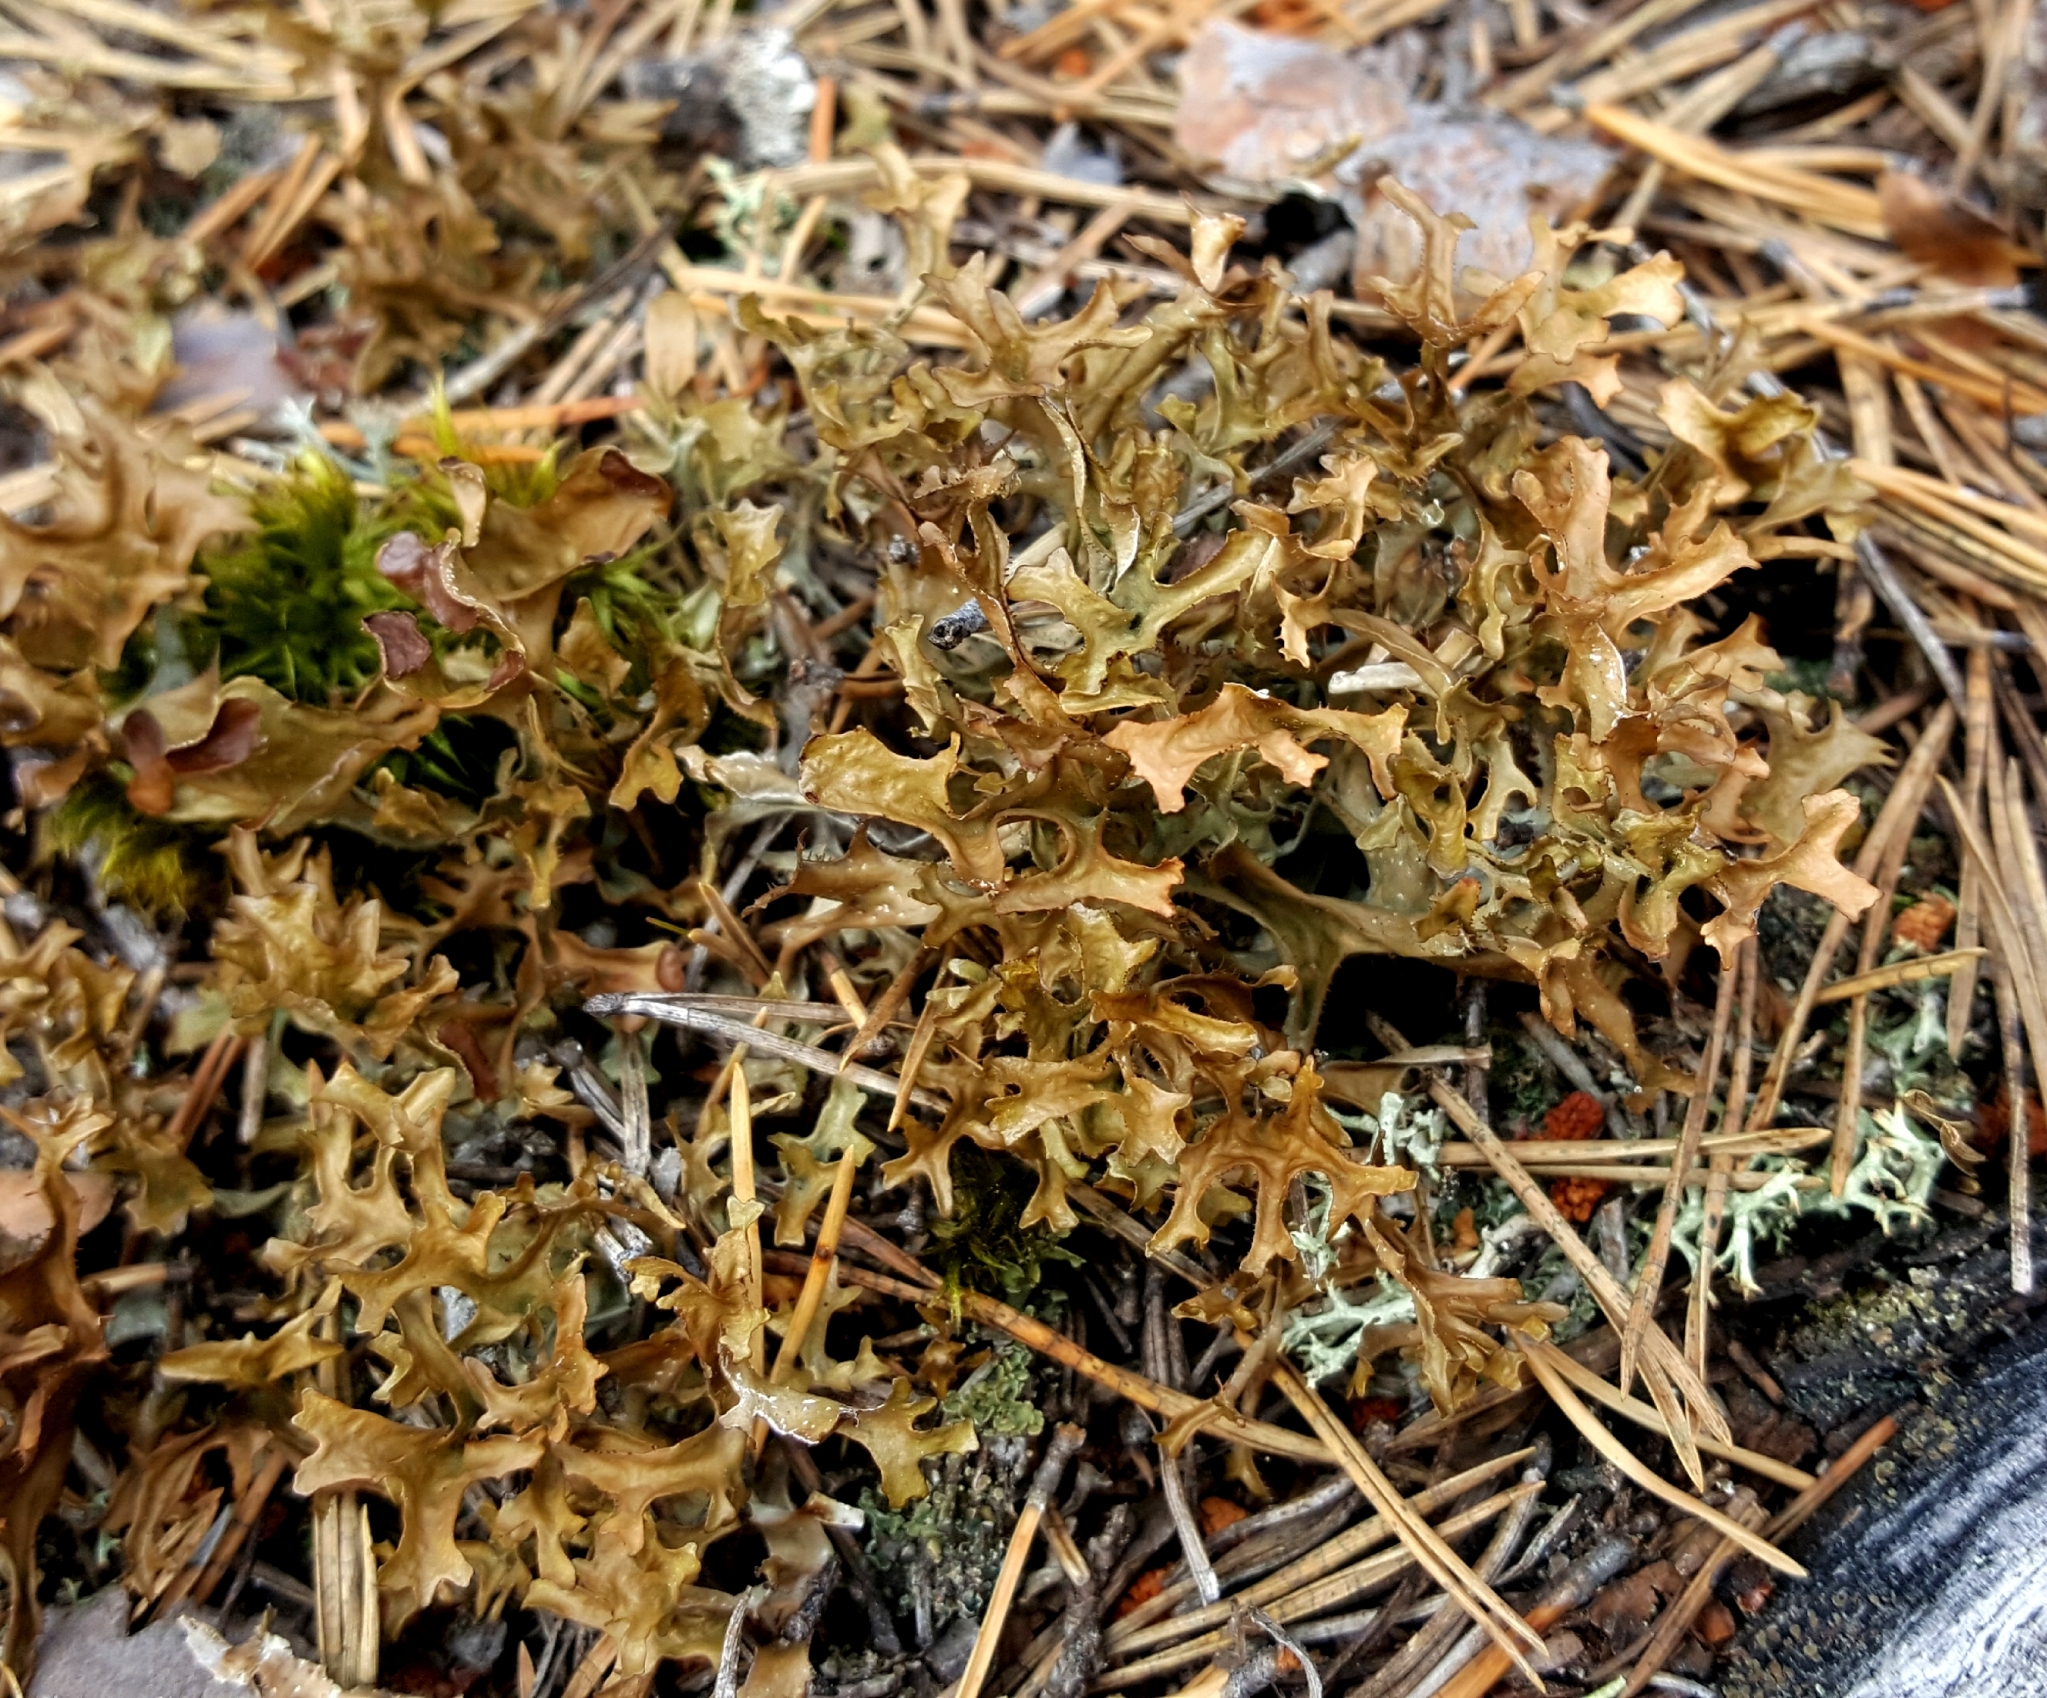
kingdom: Fungi
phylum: Ascomycota
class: Lecanoromycetes
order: Lecanorales
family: Parmeliaceae
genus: Cetraria
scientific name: Cetraria islandica
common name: Iceland lichen
